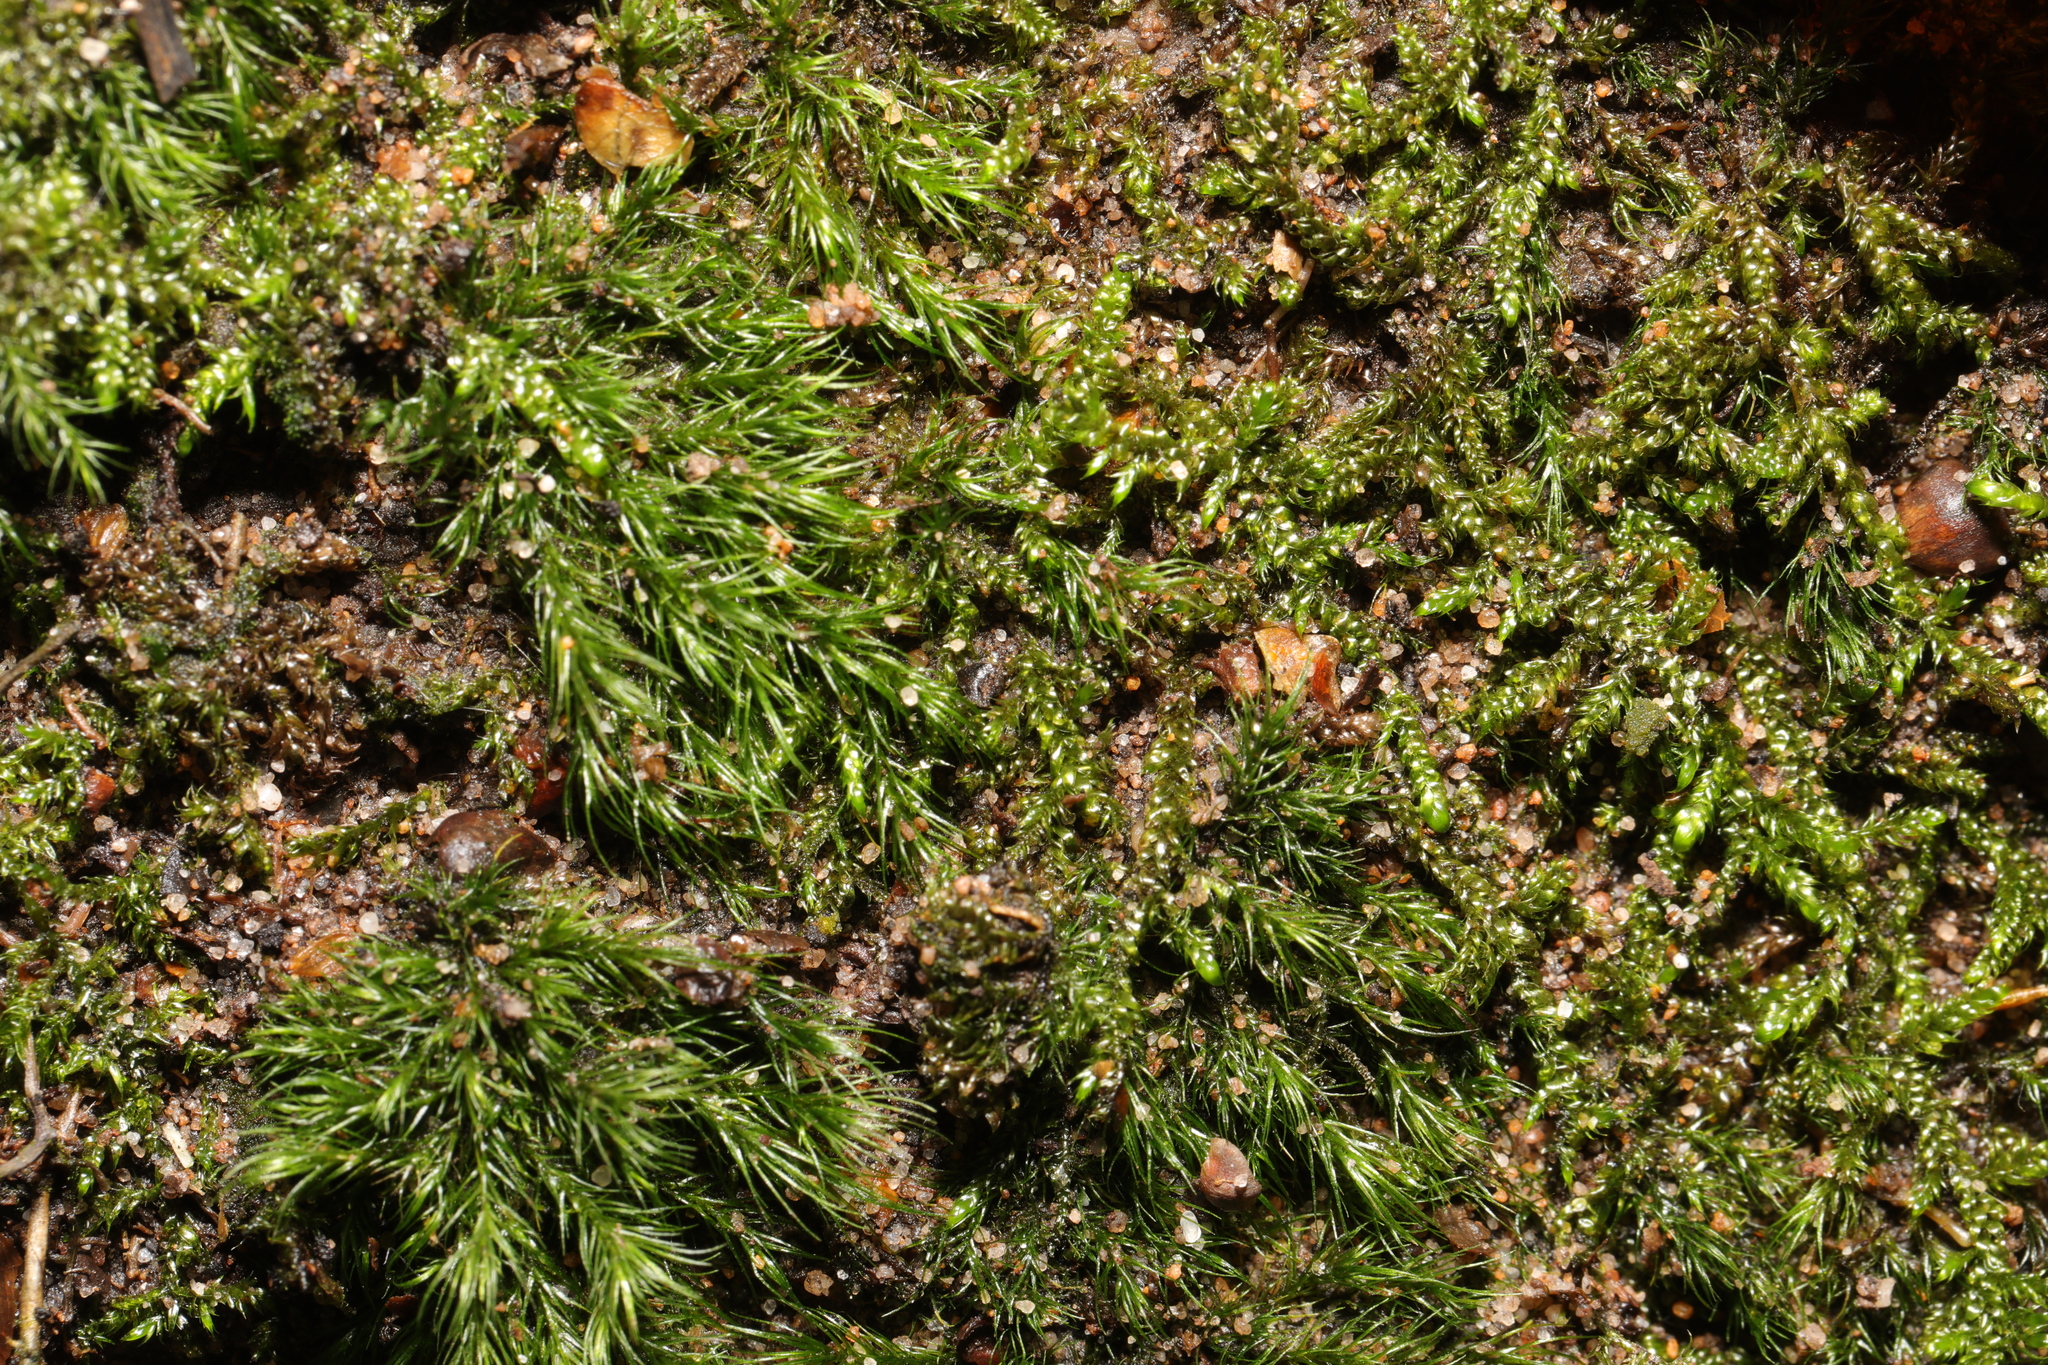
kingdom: Plantae
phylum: Bryophyta
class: Bryopsida
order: Dicranales
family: Dicranellaceae
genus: Dicranella
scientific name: Dicranella heteromalla
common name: Silky forklet moss
